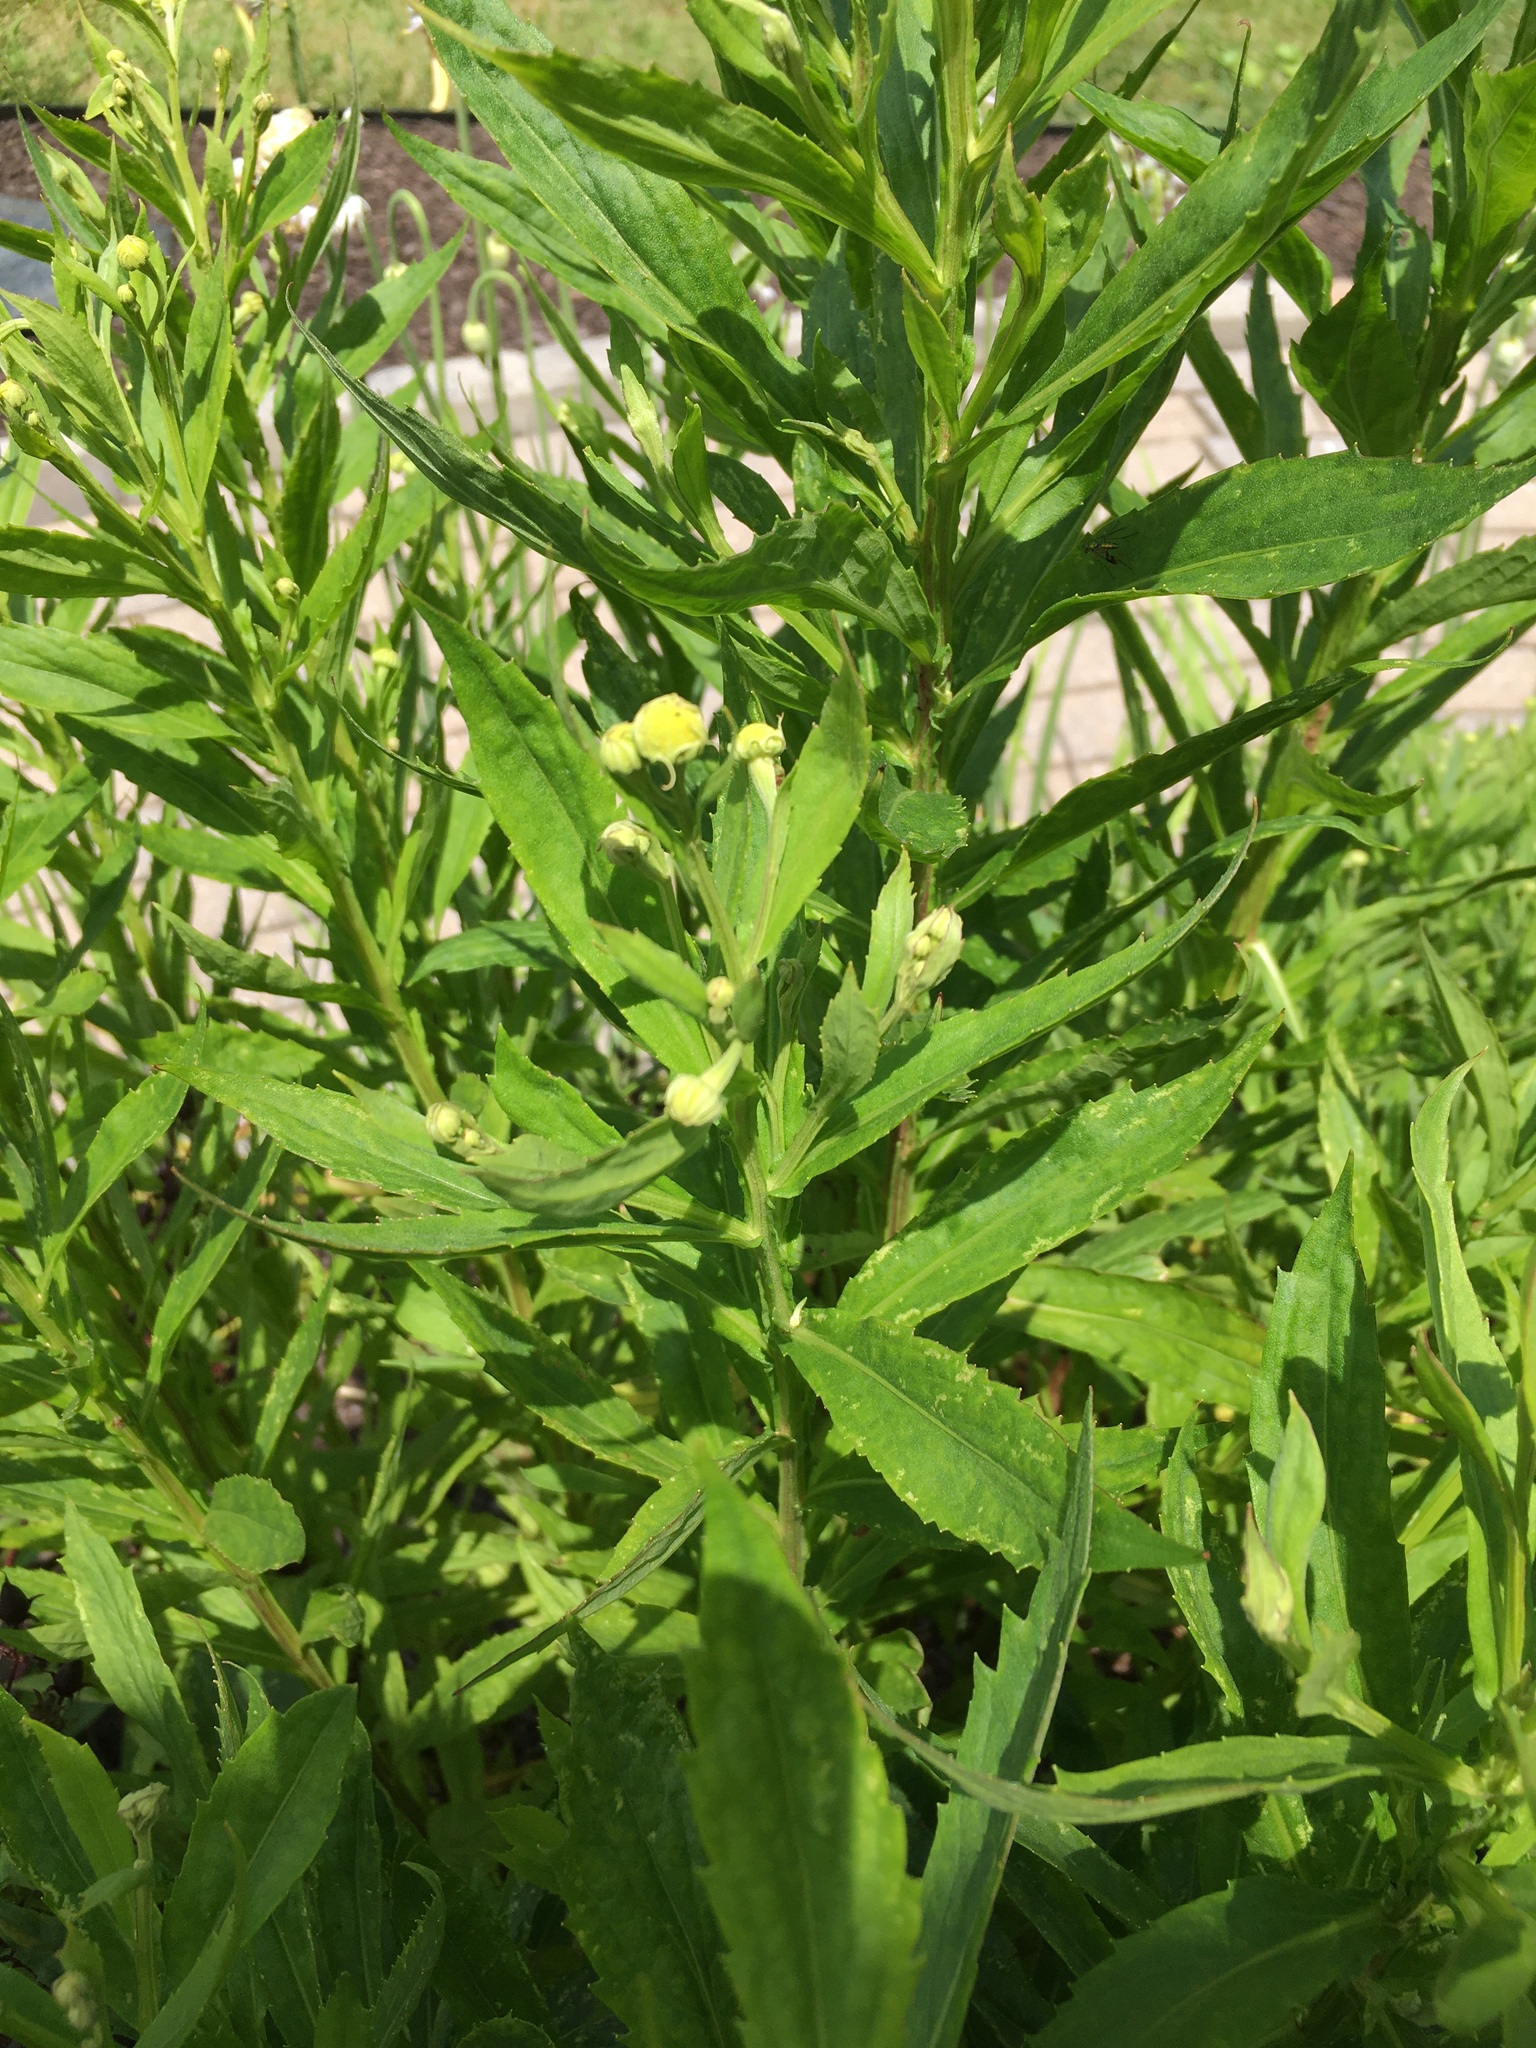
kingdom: Plantae
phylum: Tracheophyta
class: Magnoliopsida
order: Asterales
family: Asteraceae
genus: Helenium
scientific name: Helenium autumnale
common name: Sneezeweed
